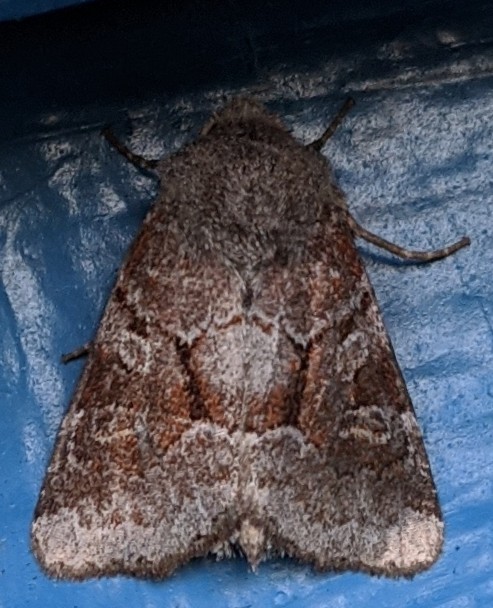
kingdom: Animalia
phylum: Arthropoda
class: Insecta
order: Lepidoptera
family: Noctuidae
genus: Oligia
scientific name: Oligia minuscula
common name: Small brocade
